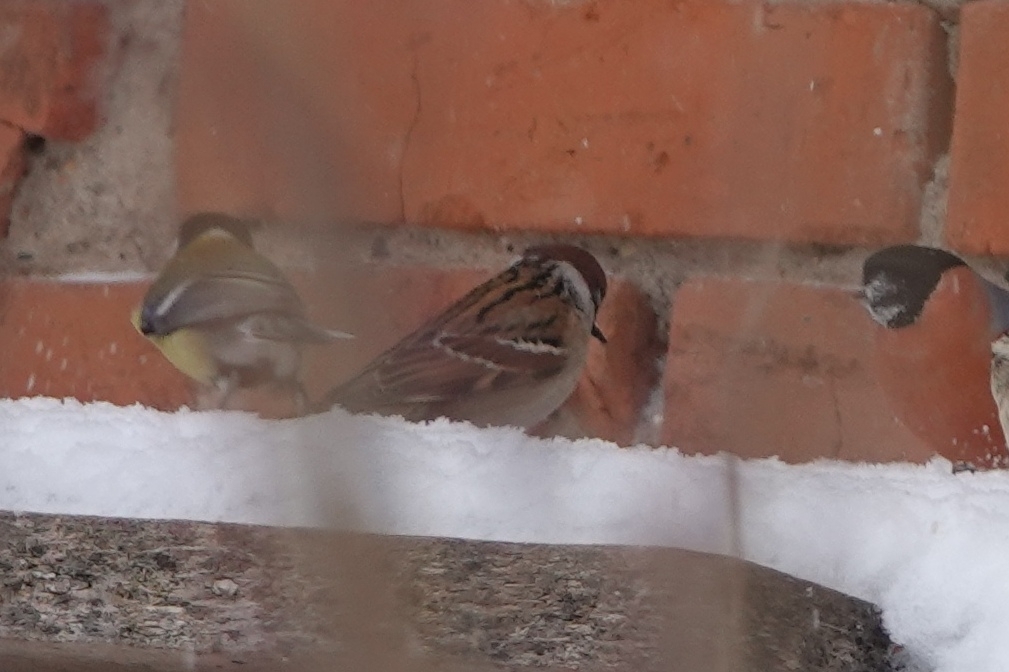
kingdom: Animalia
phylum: Chordata
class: Aves
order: Passeriformes
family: Passeridae
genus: Passer
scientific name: Passer montanus
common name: Eurasian tree sparrow
